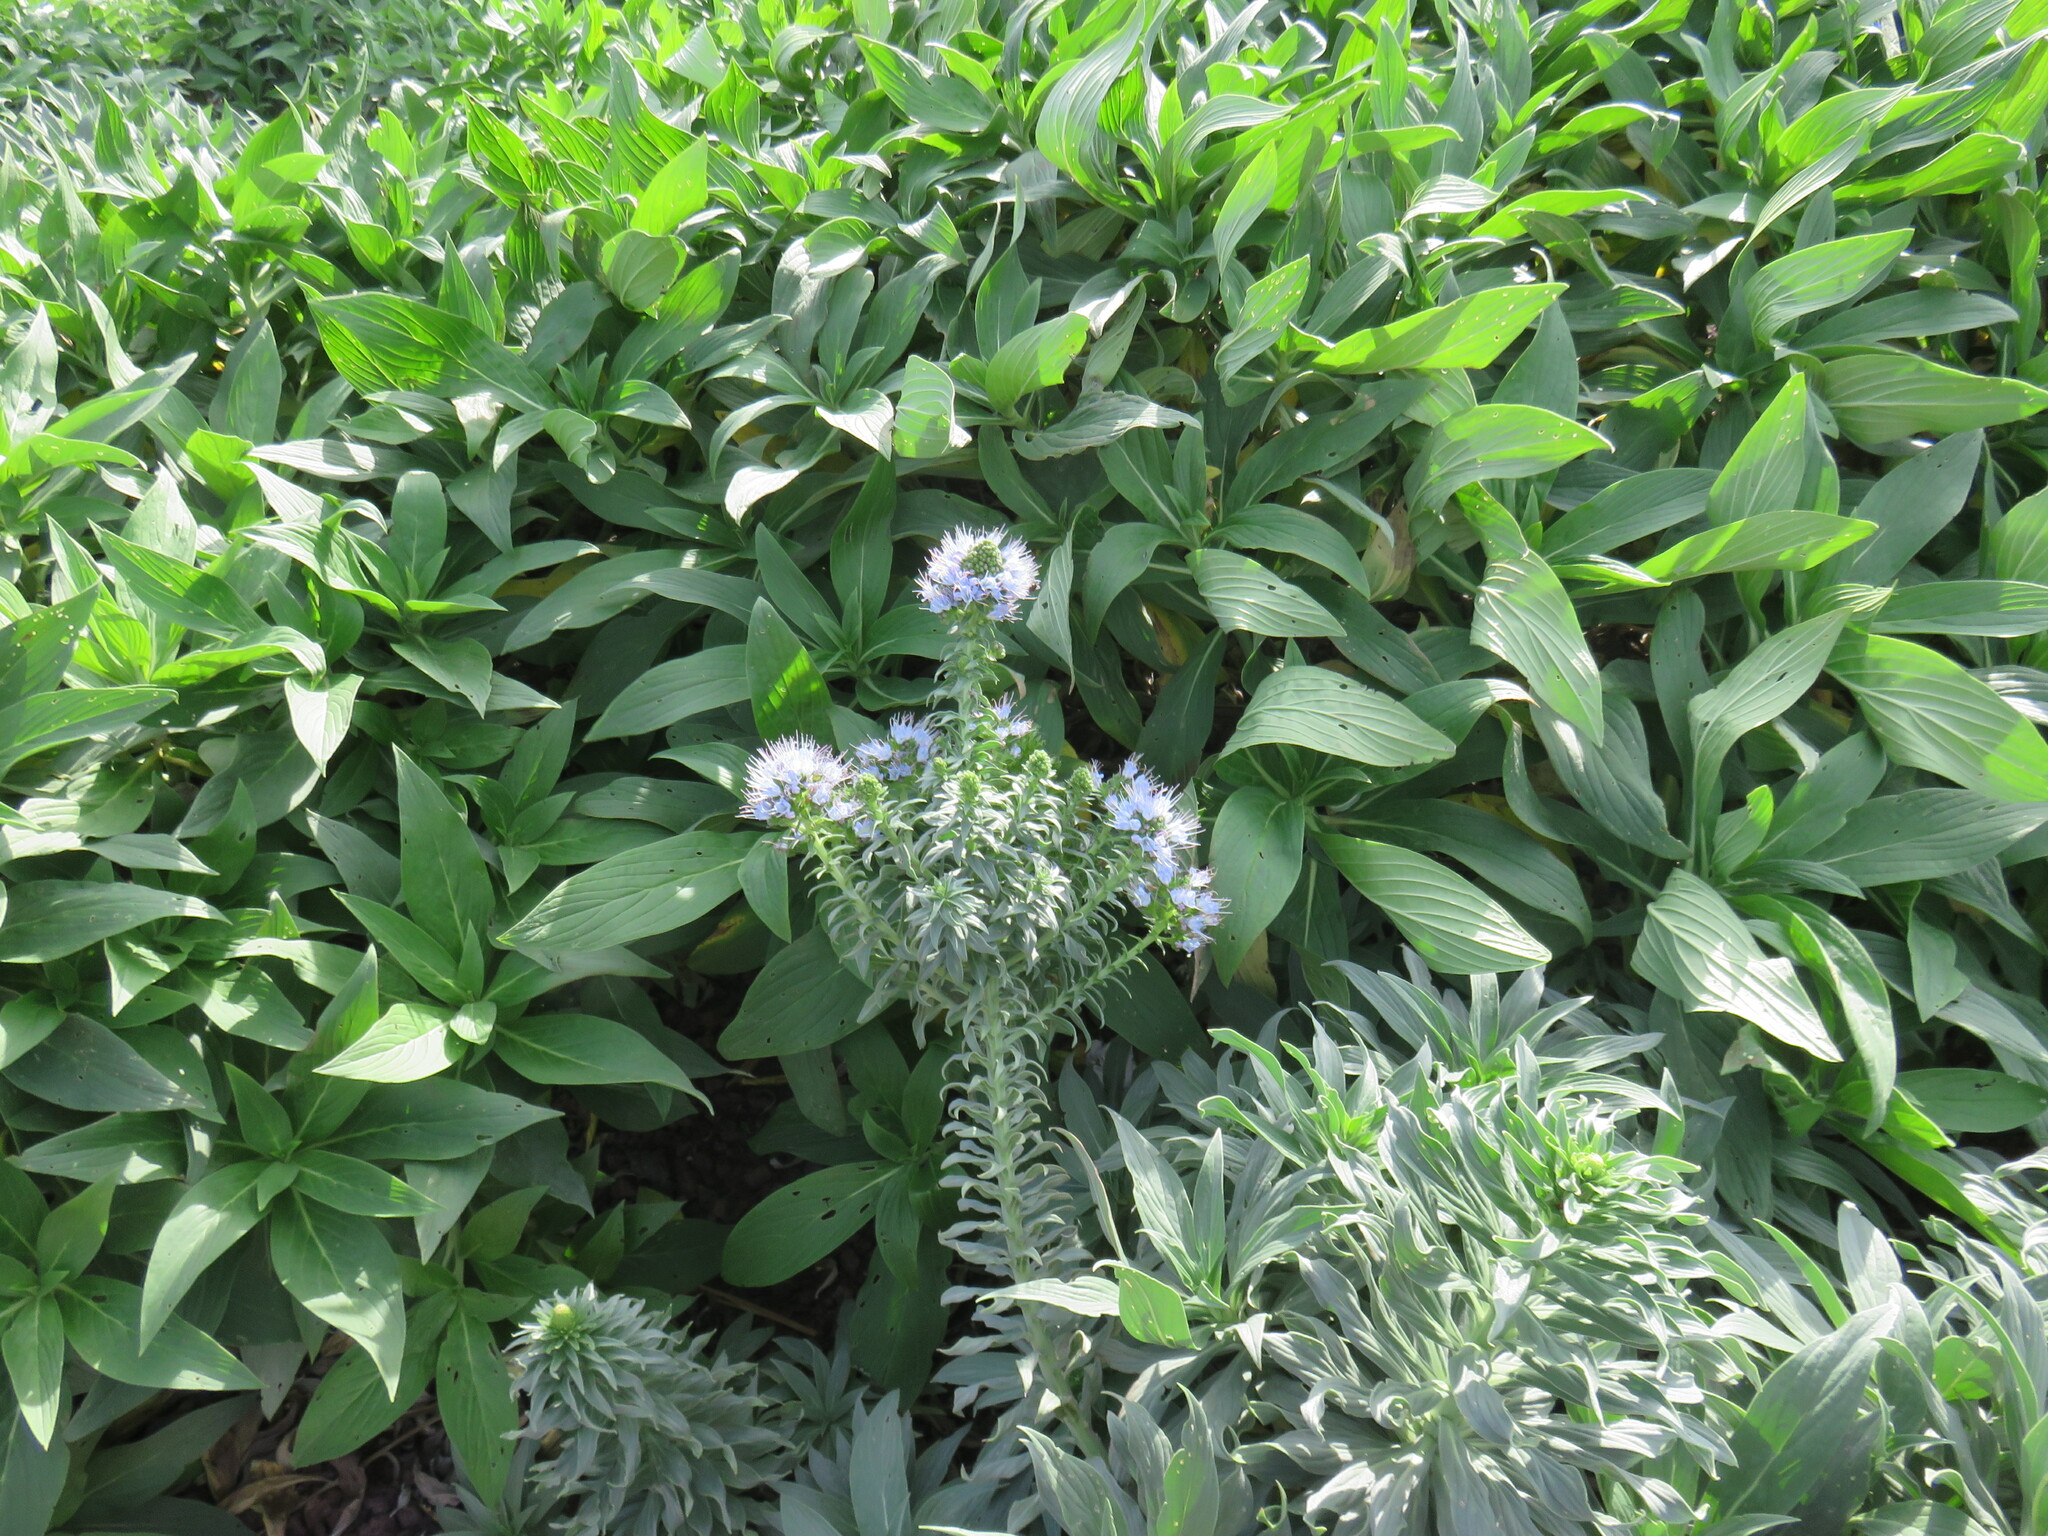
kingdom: Plantae
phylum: Tracheophyta
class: Magnoliopsida
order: Boraginales
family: Boraginaceae
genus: Echium
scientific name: Echium nervosum
